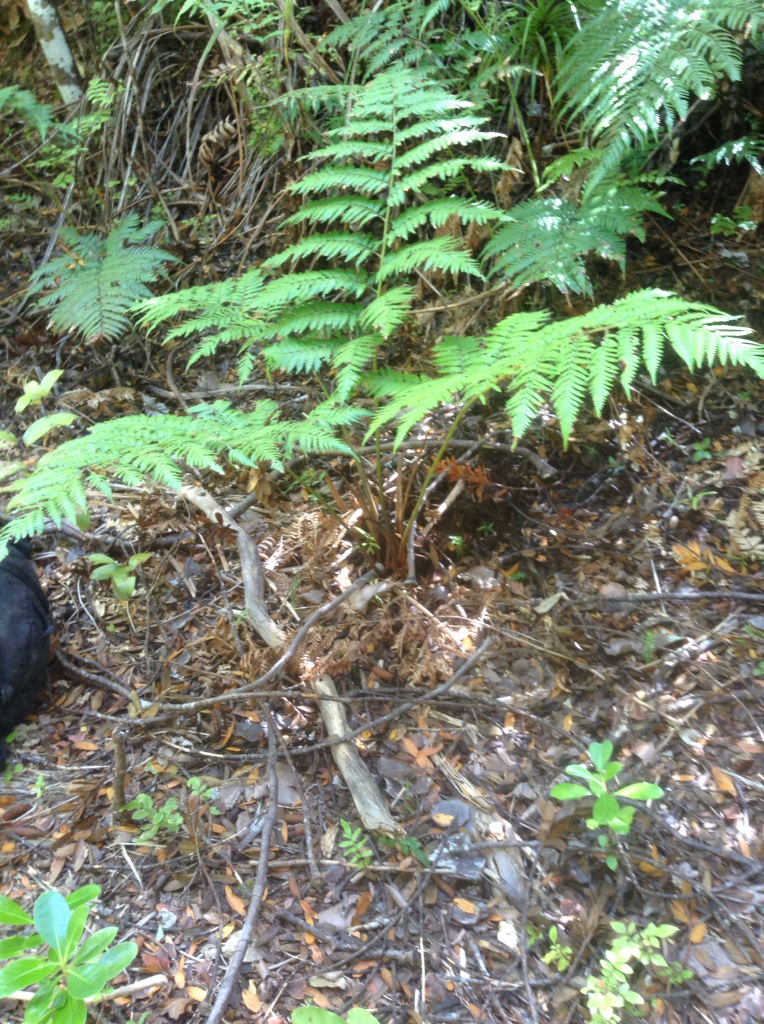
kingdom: Plantae
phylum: Tracheophyta
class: Polypodiopsida
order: Cyatheales
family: Dicksoniaceae
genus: Dicksonia
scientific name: Dicksonia lanata
